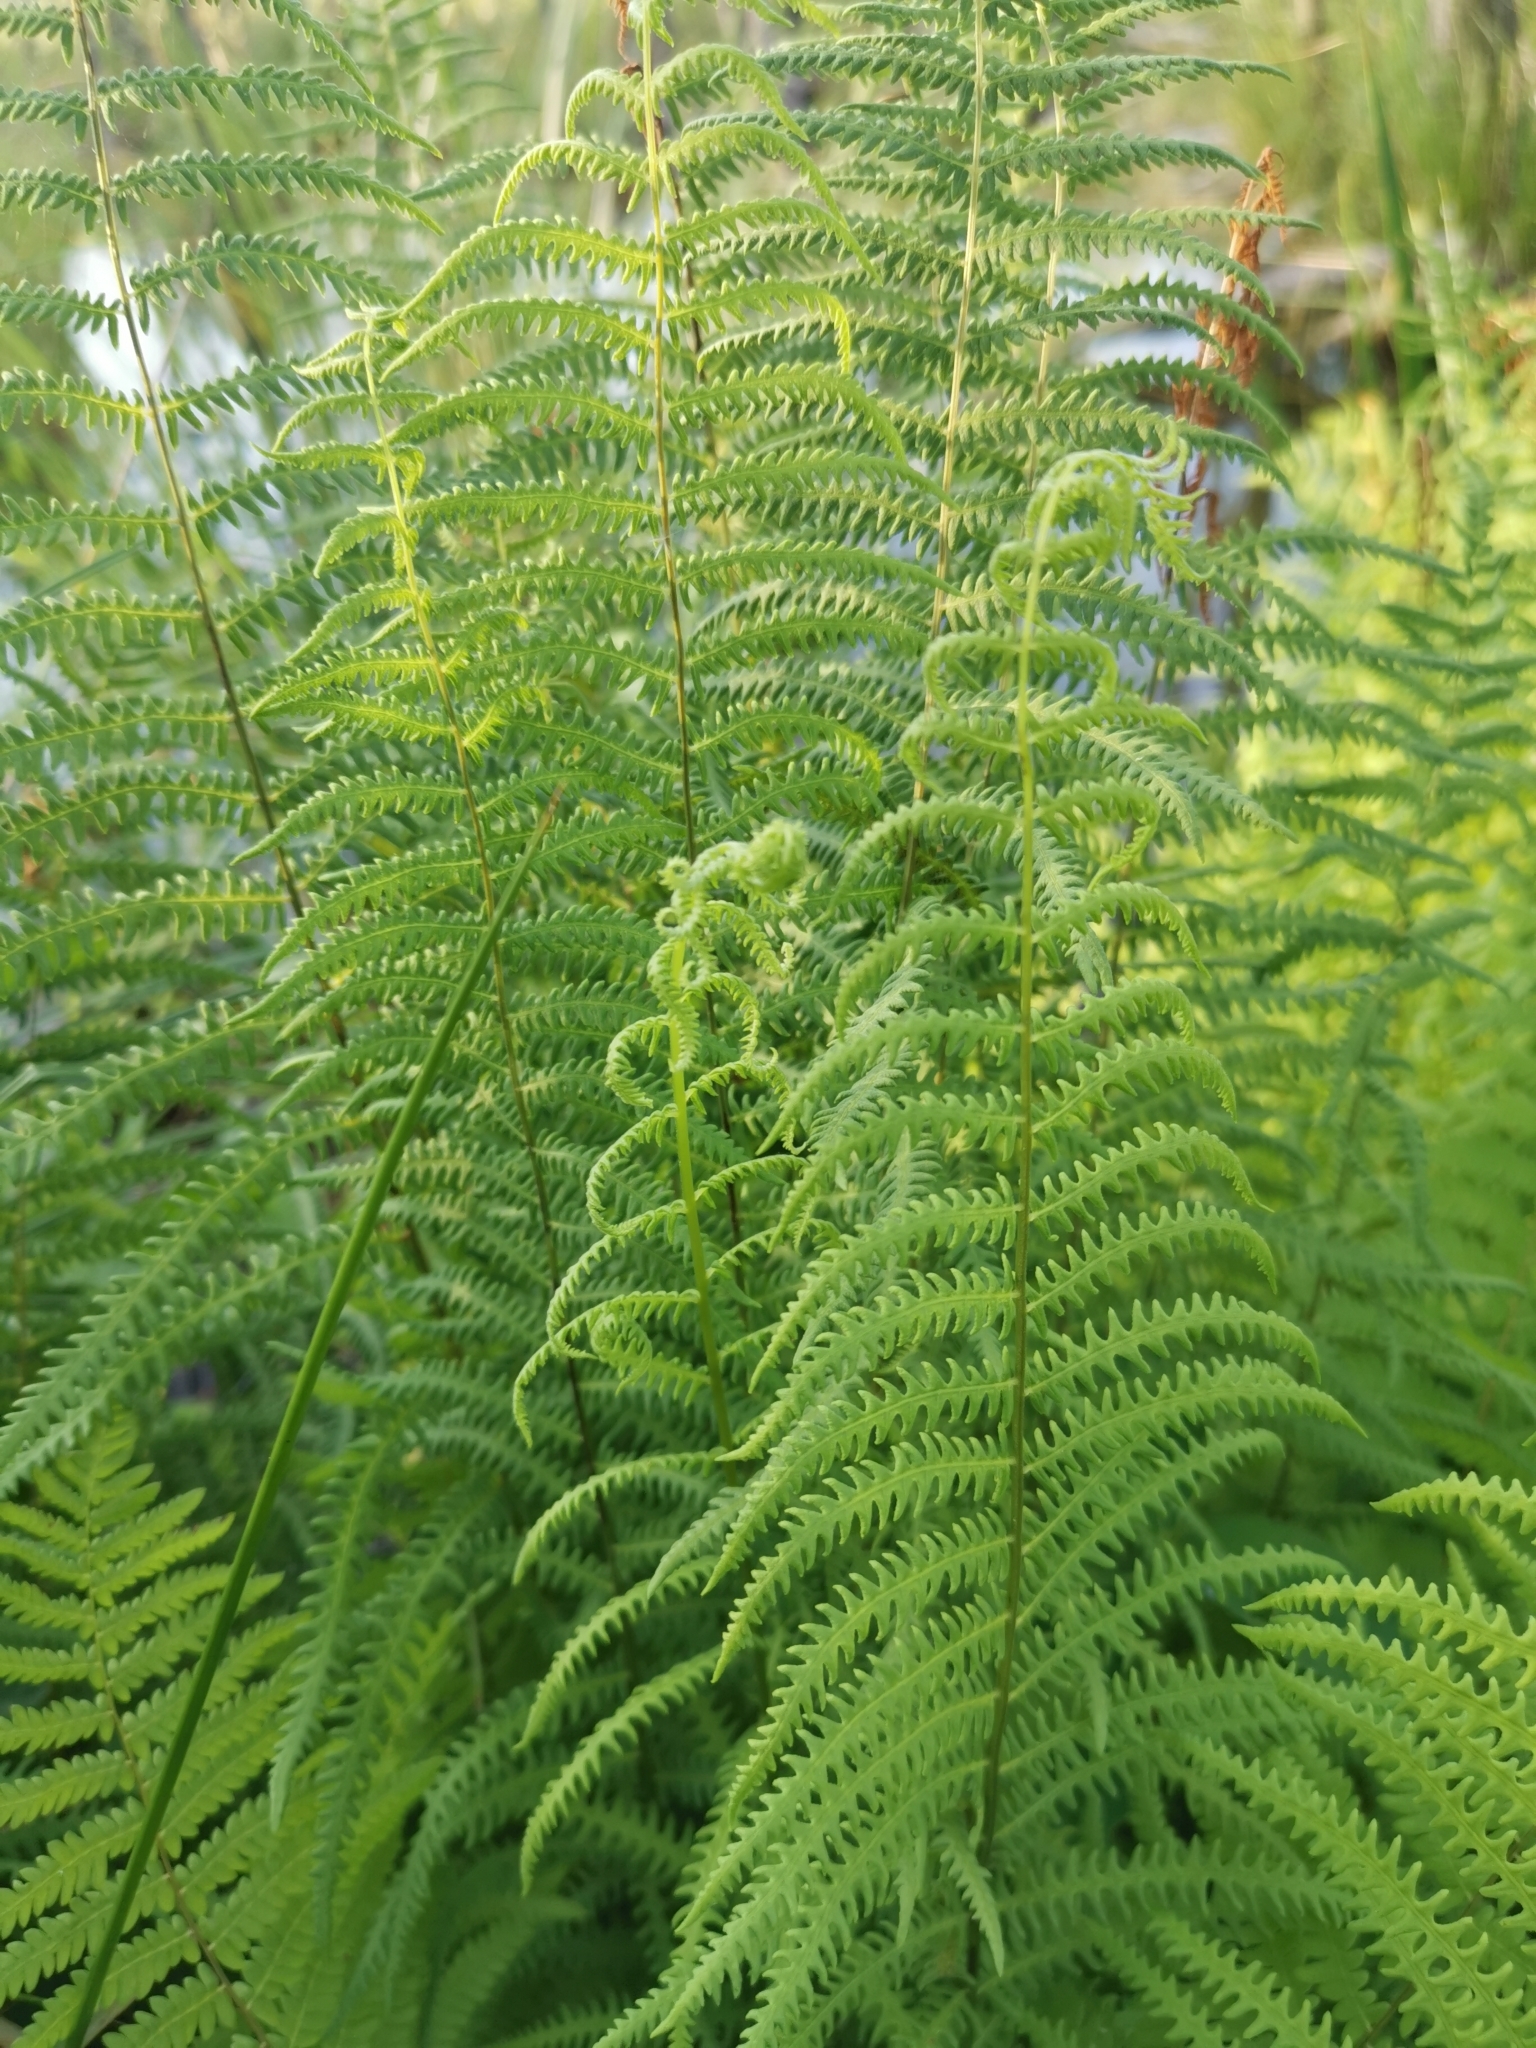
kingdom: Plantae
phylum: Tracheophyta
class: Polypodiopsida
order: Polypodiales
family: Thelypteridaceae
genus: Thelypteris
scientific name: Thelypteris palustris
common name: Marsh fern
